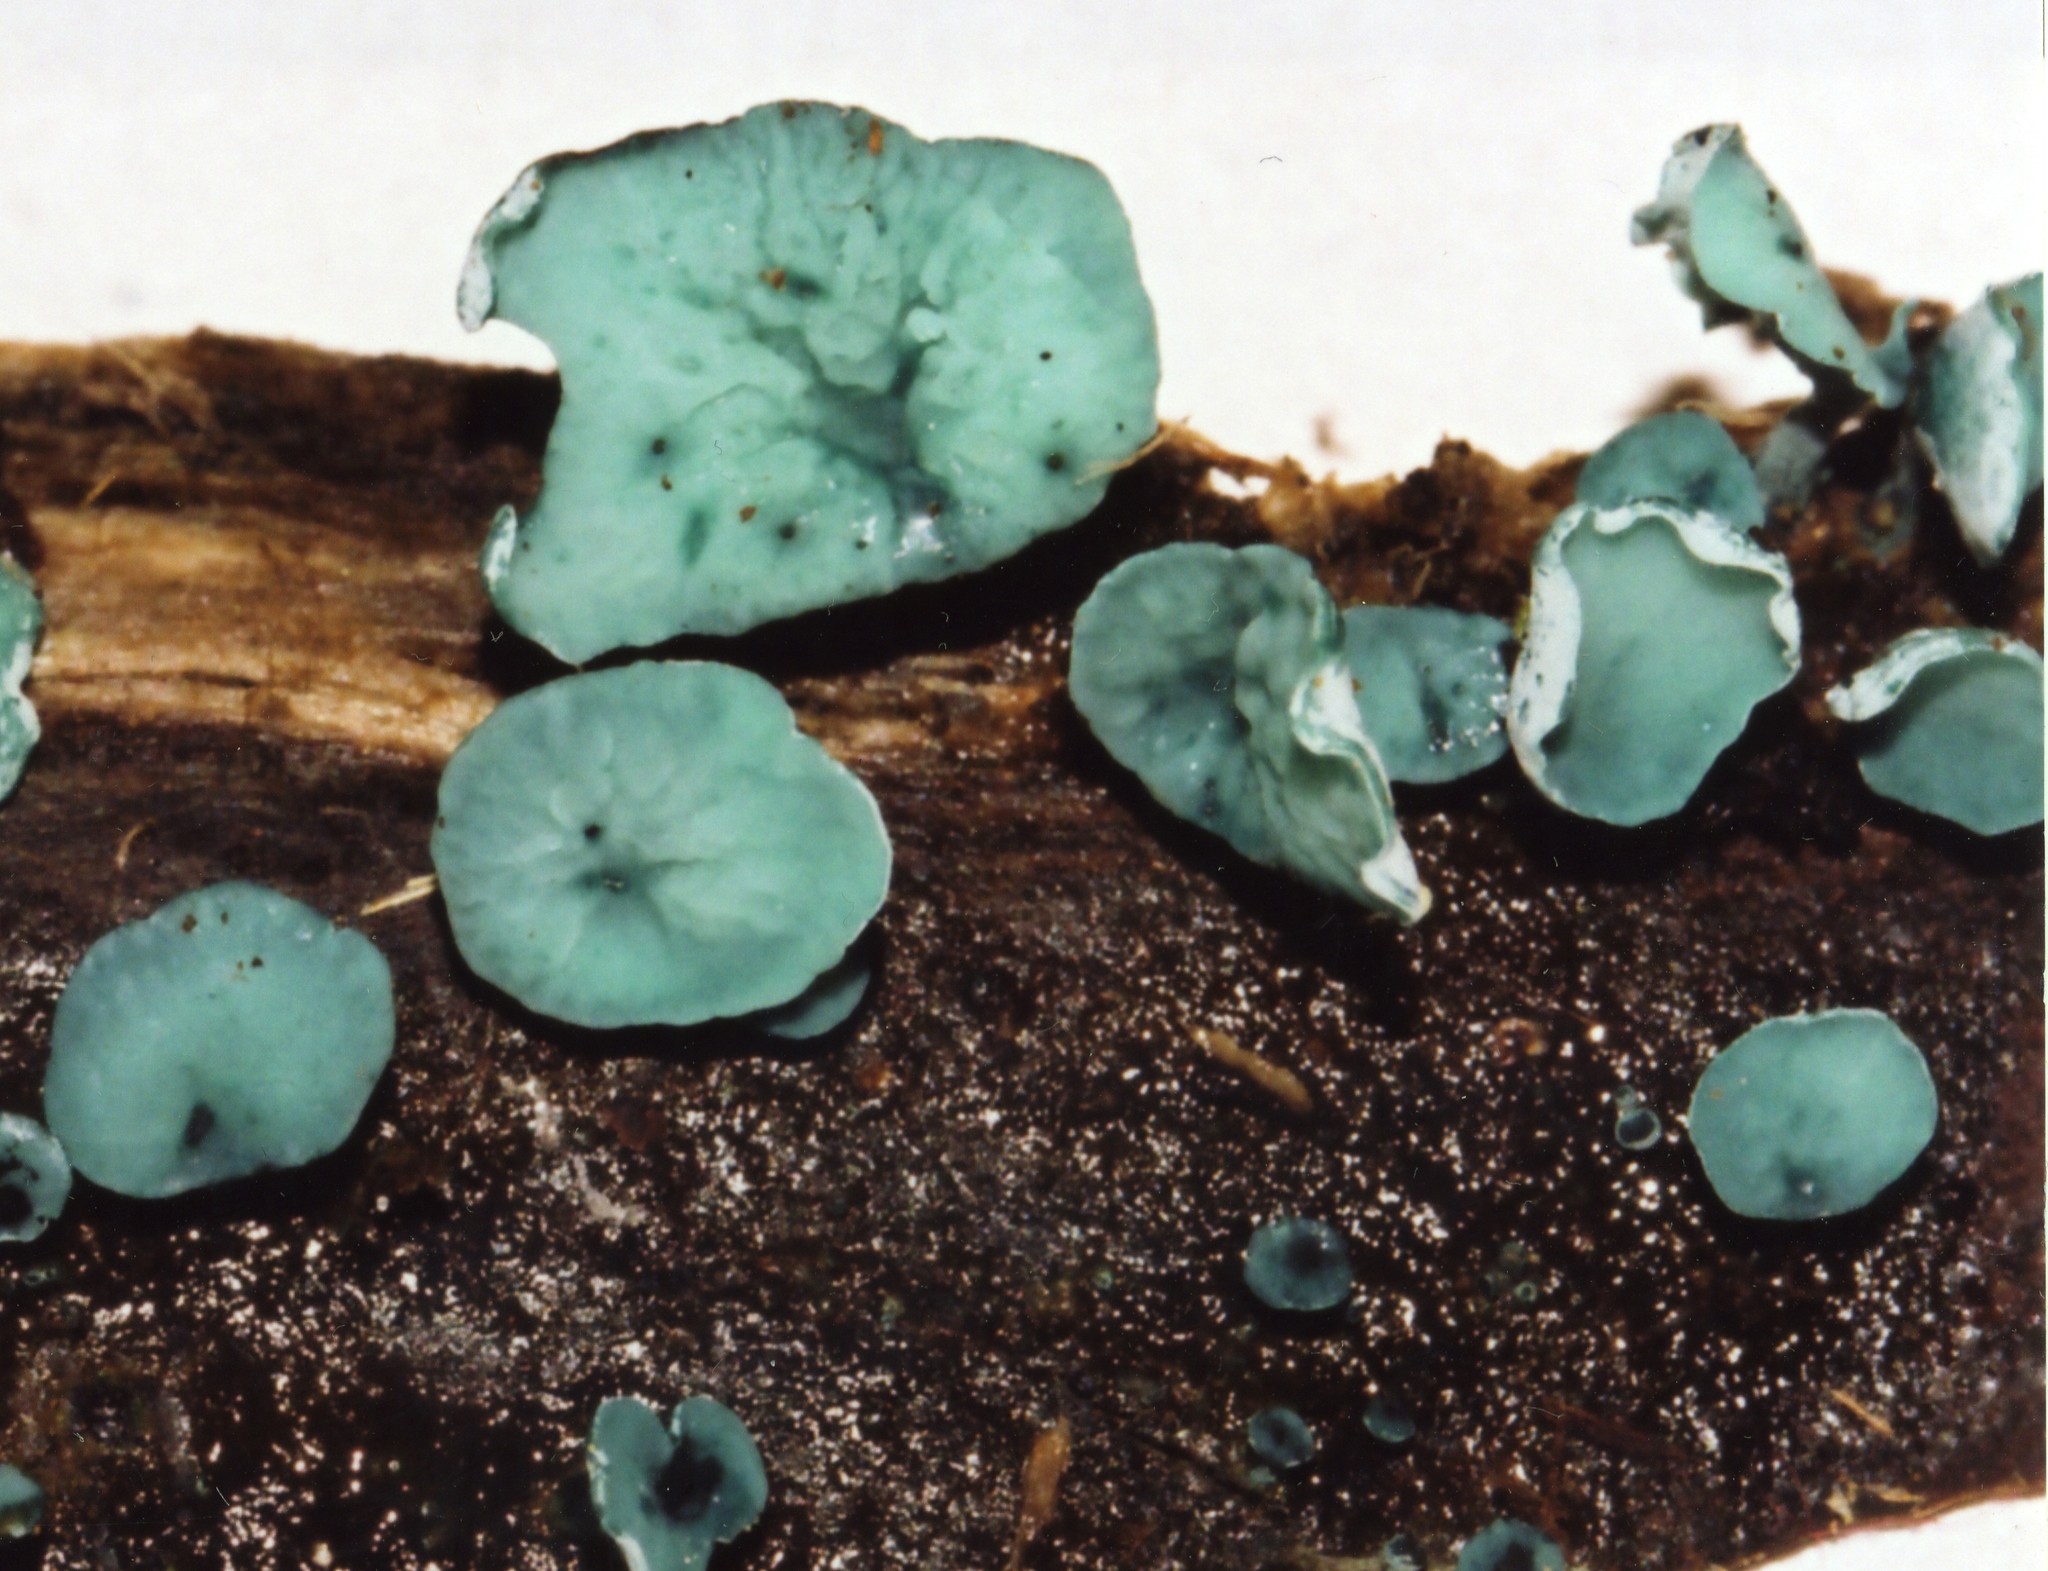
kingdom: Fungi
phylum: Ascomycota
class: Leotiomycetes
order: Helotiales
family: Chlorociboriaceae
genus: Chlorociboria
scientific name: Chlorociboria aeruginascens
